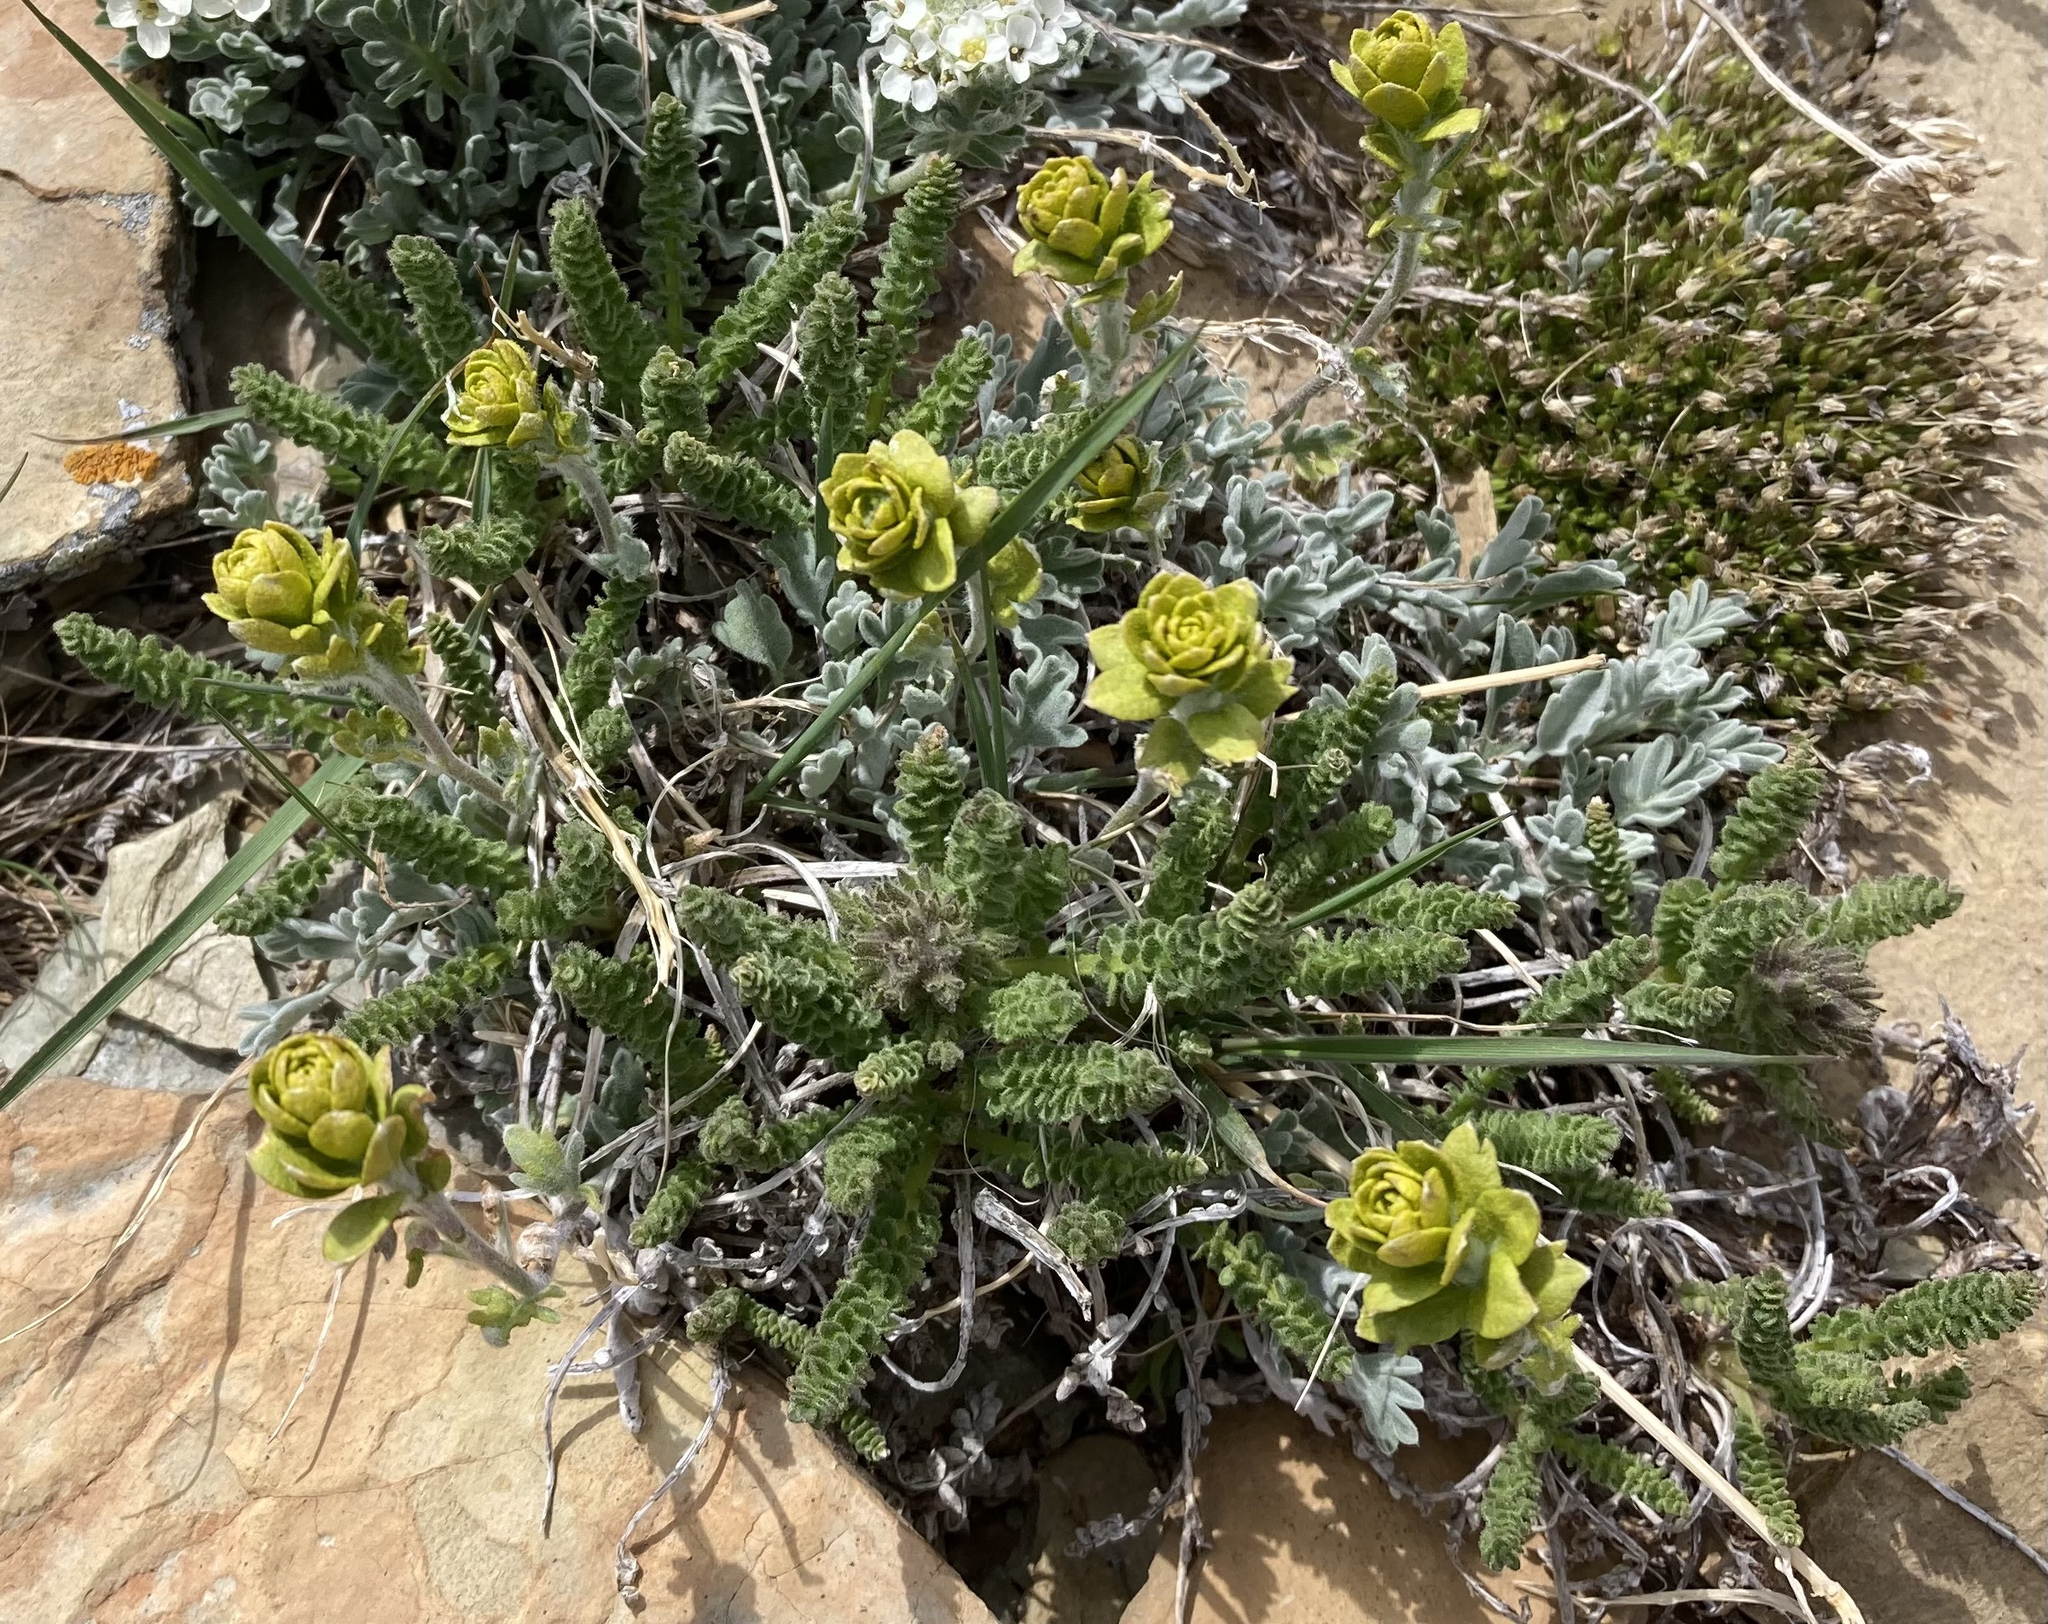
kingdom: Plantae
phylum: Tracheophyta
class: Magnoliopsida
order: Brassicales
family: Brassicaceae
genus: Smelowskia
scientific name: Smelowskia americana
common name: American false candytuft
